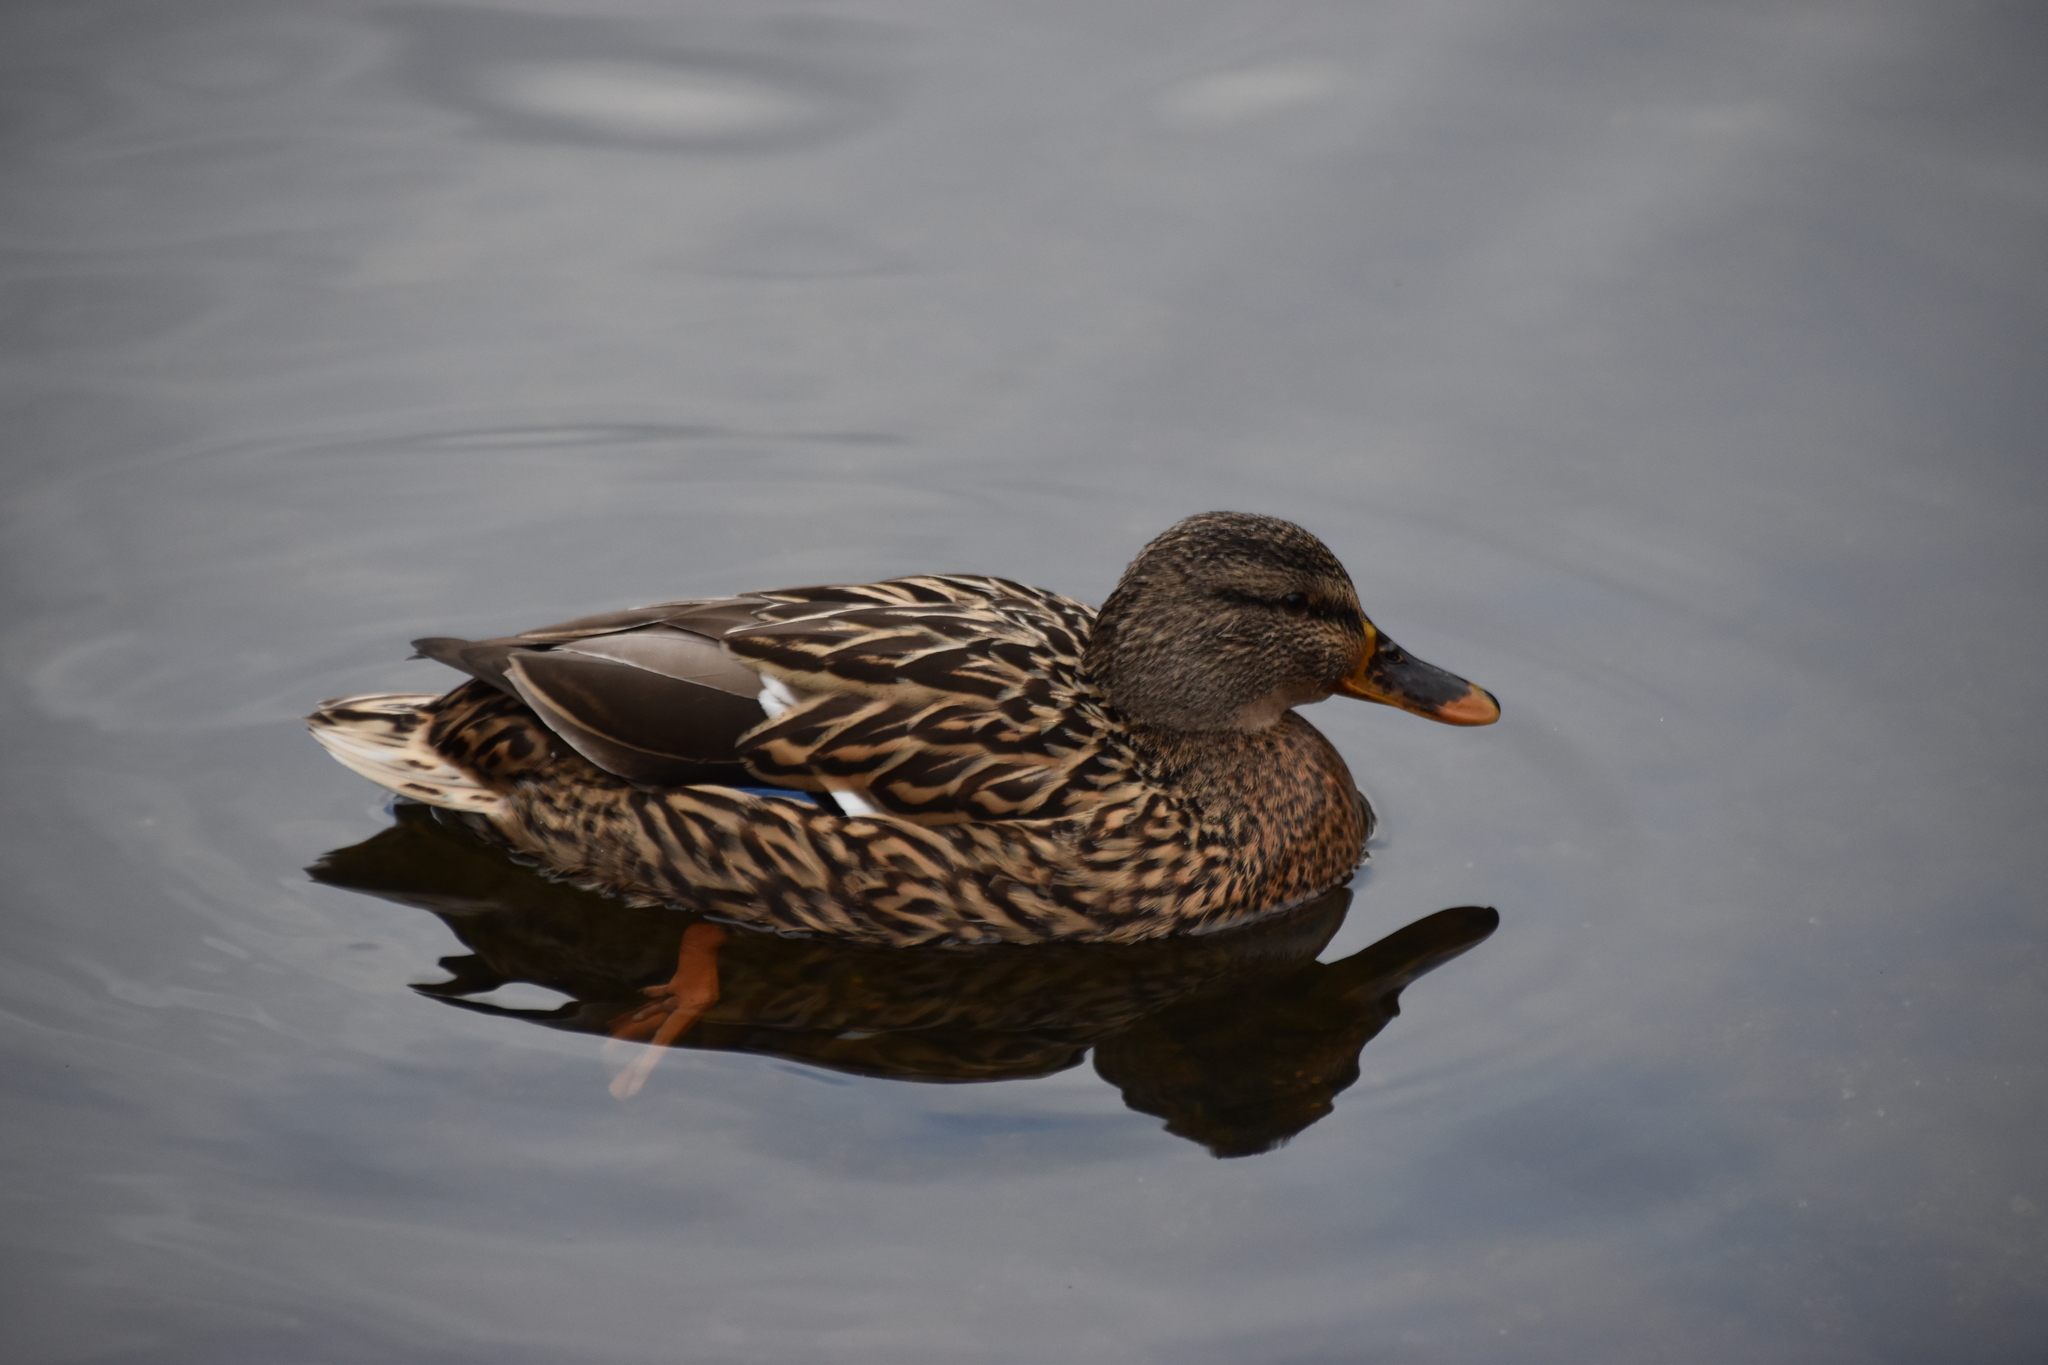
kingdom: Animalia
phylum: Chordata
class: Aves
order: Anseriformes
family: Anatidae
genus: Anas
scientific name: Anas platyrhynchos
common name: Mallard
